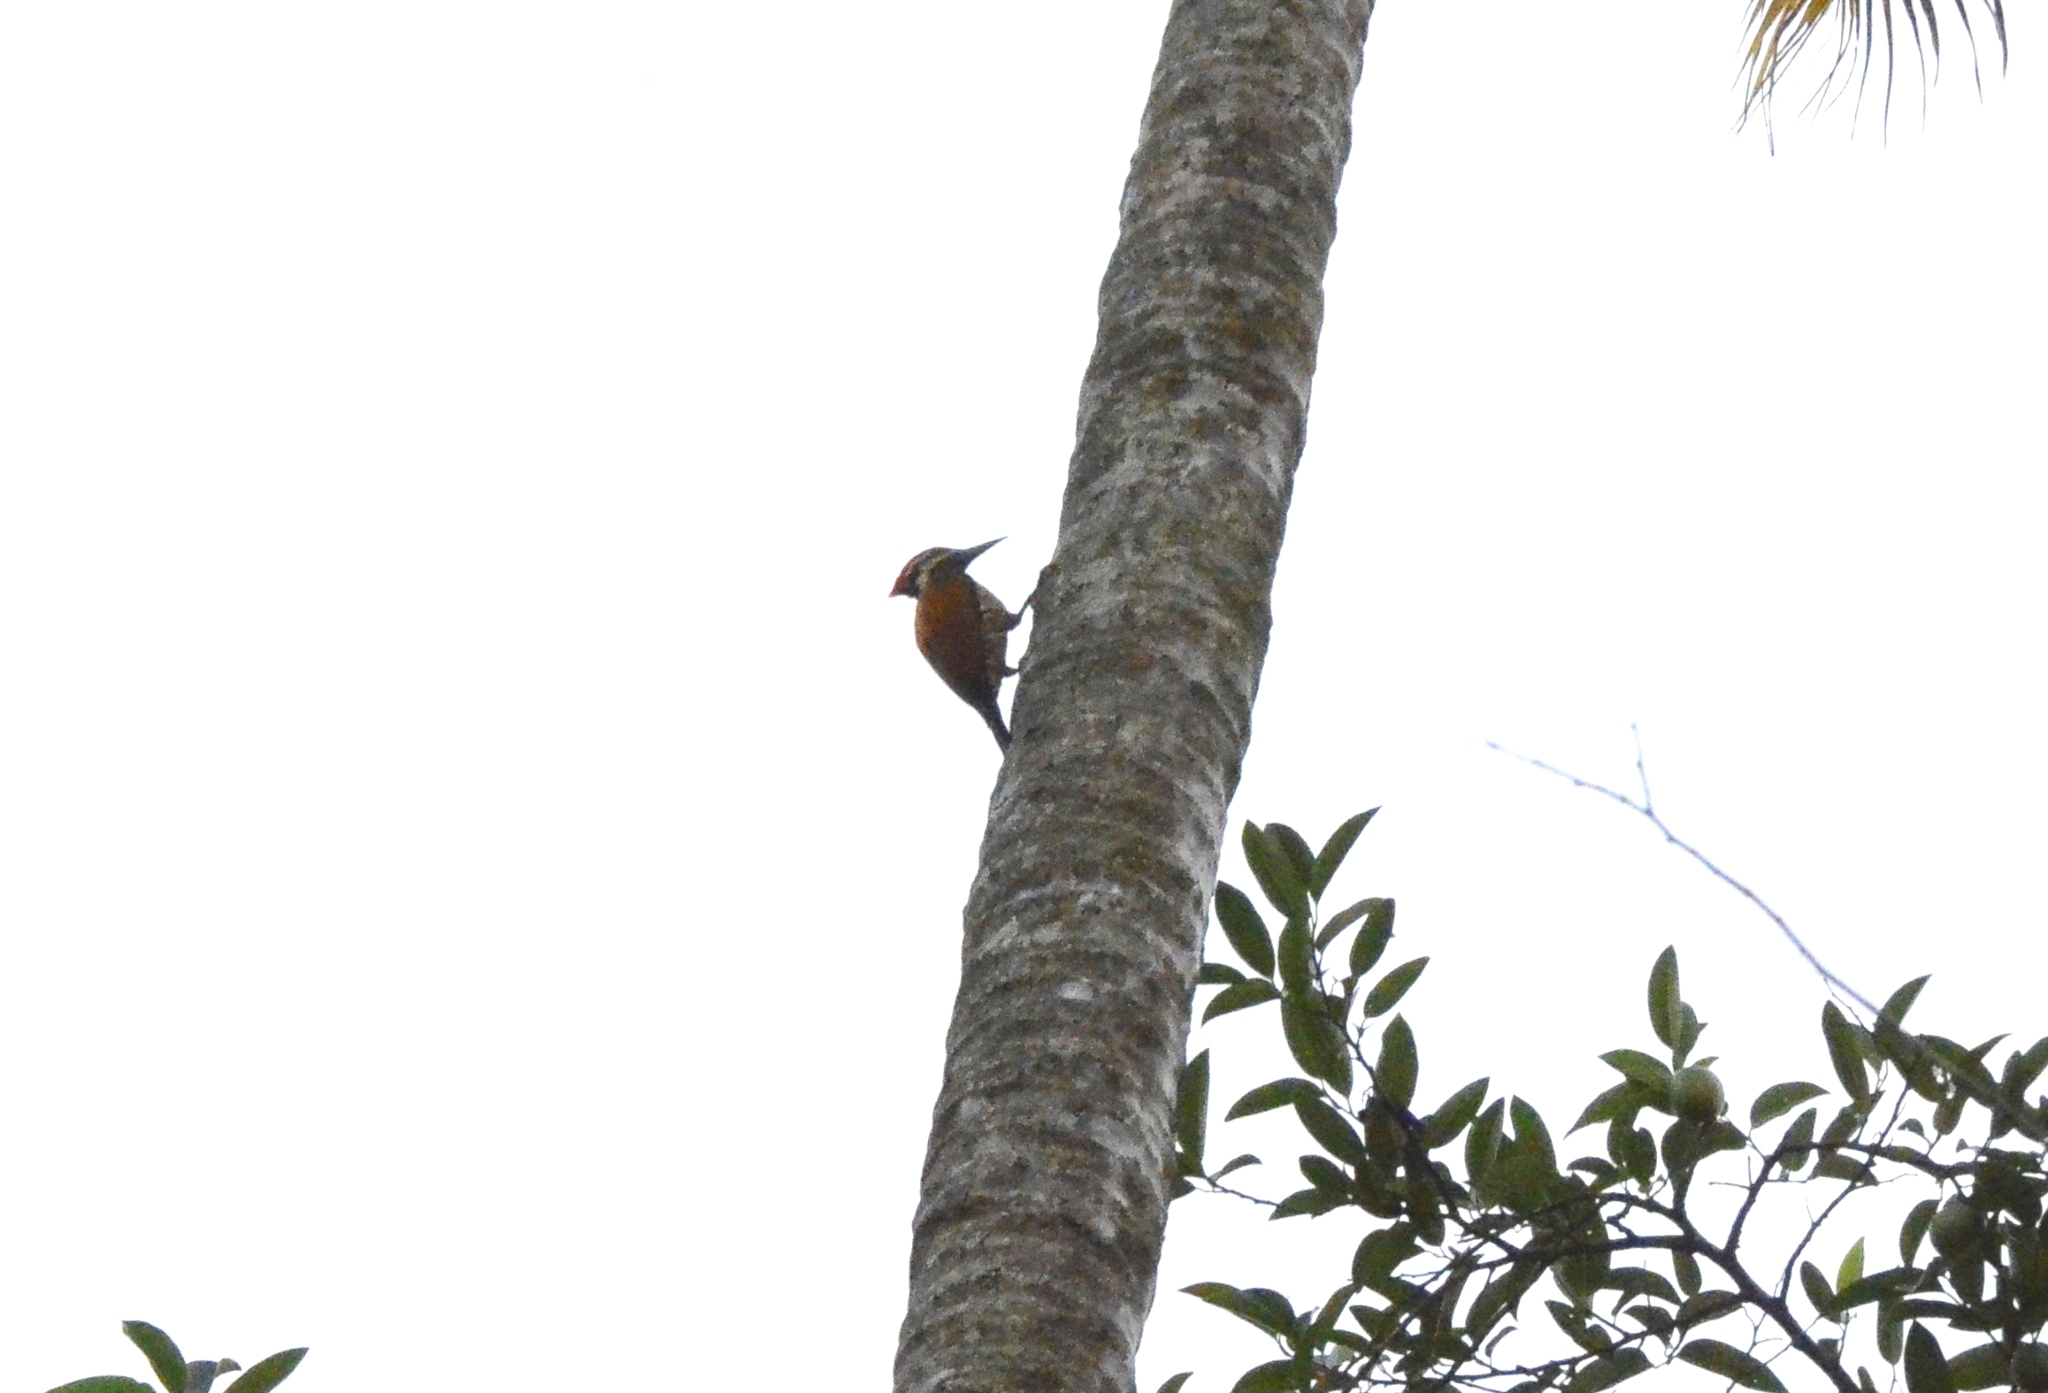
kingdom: Animalia
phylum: Chordata
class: Aves
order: Piciformes
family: Picidae
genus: Dinopium
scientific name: Dinopium benghalense
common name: Black-rumped flameback
